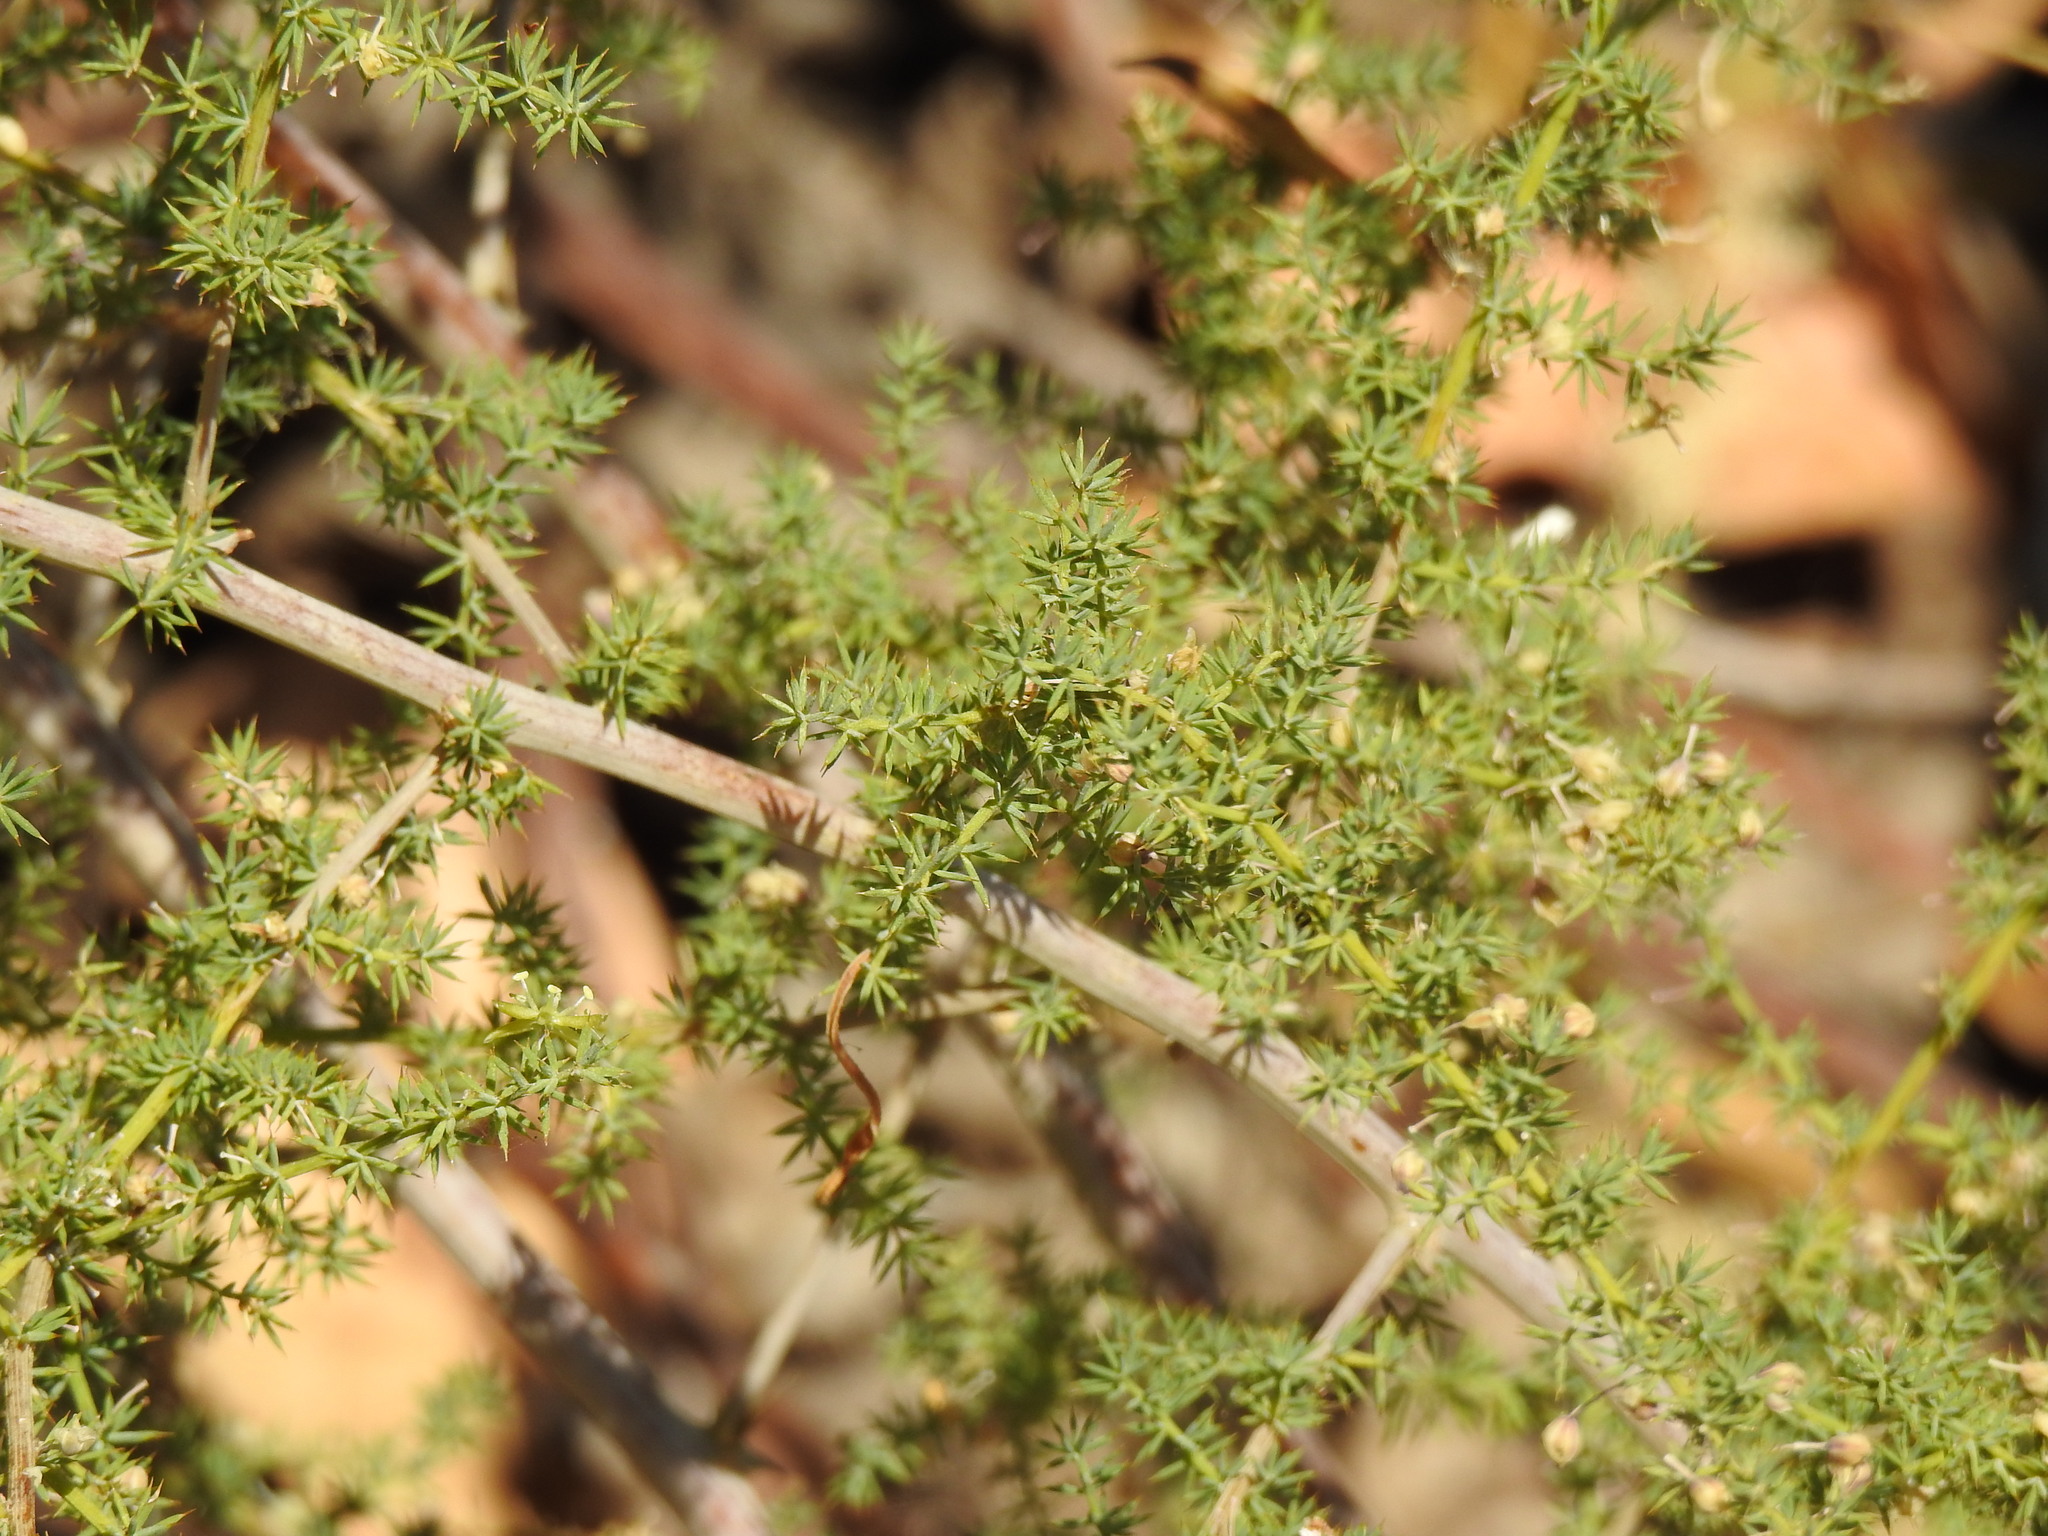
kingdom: Plantae
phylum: Tracheophyta
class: Liliopsida
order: Asparagales
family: Asparagaceae
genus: Asparagus
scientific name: Asparagus acutifolius
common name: Wild asparagus
